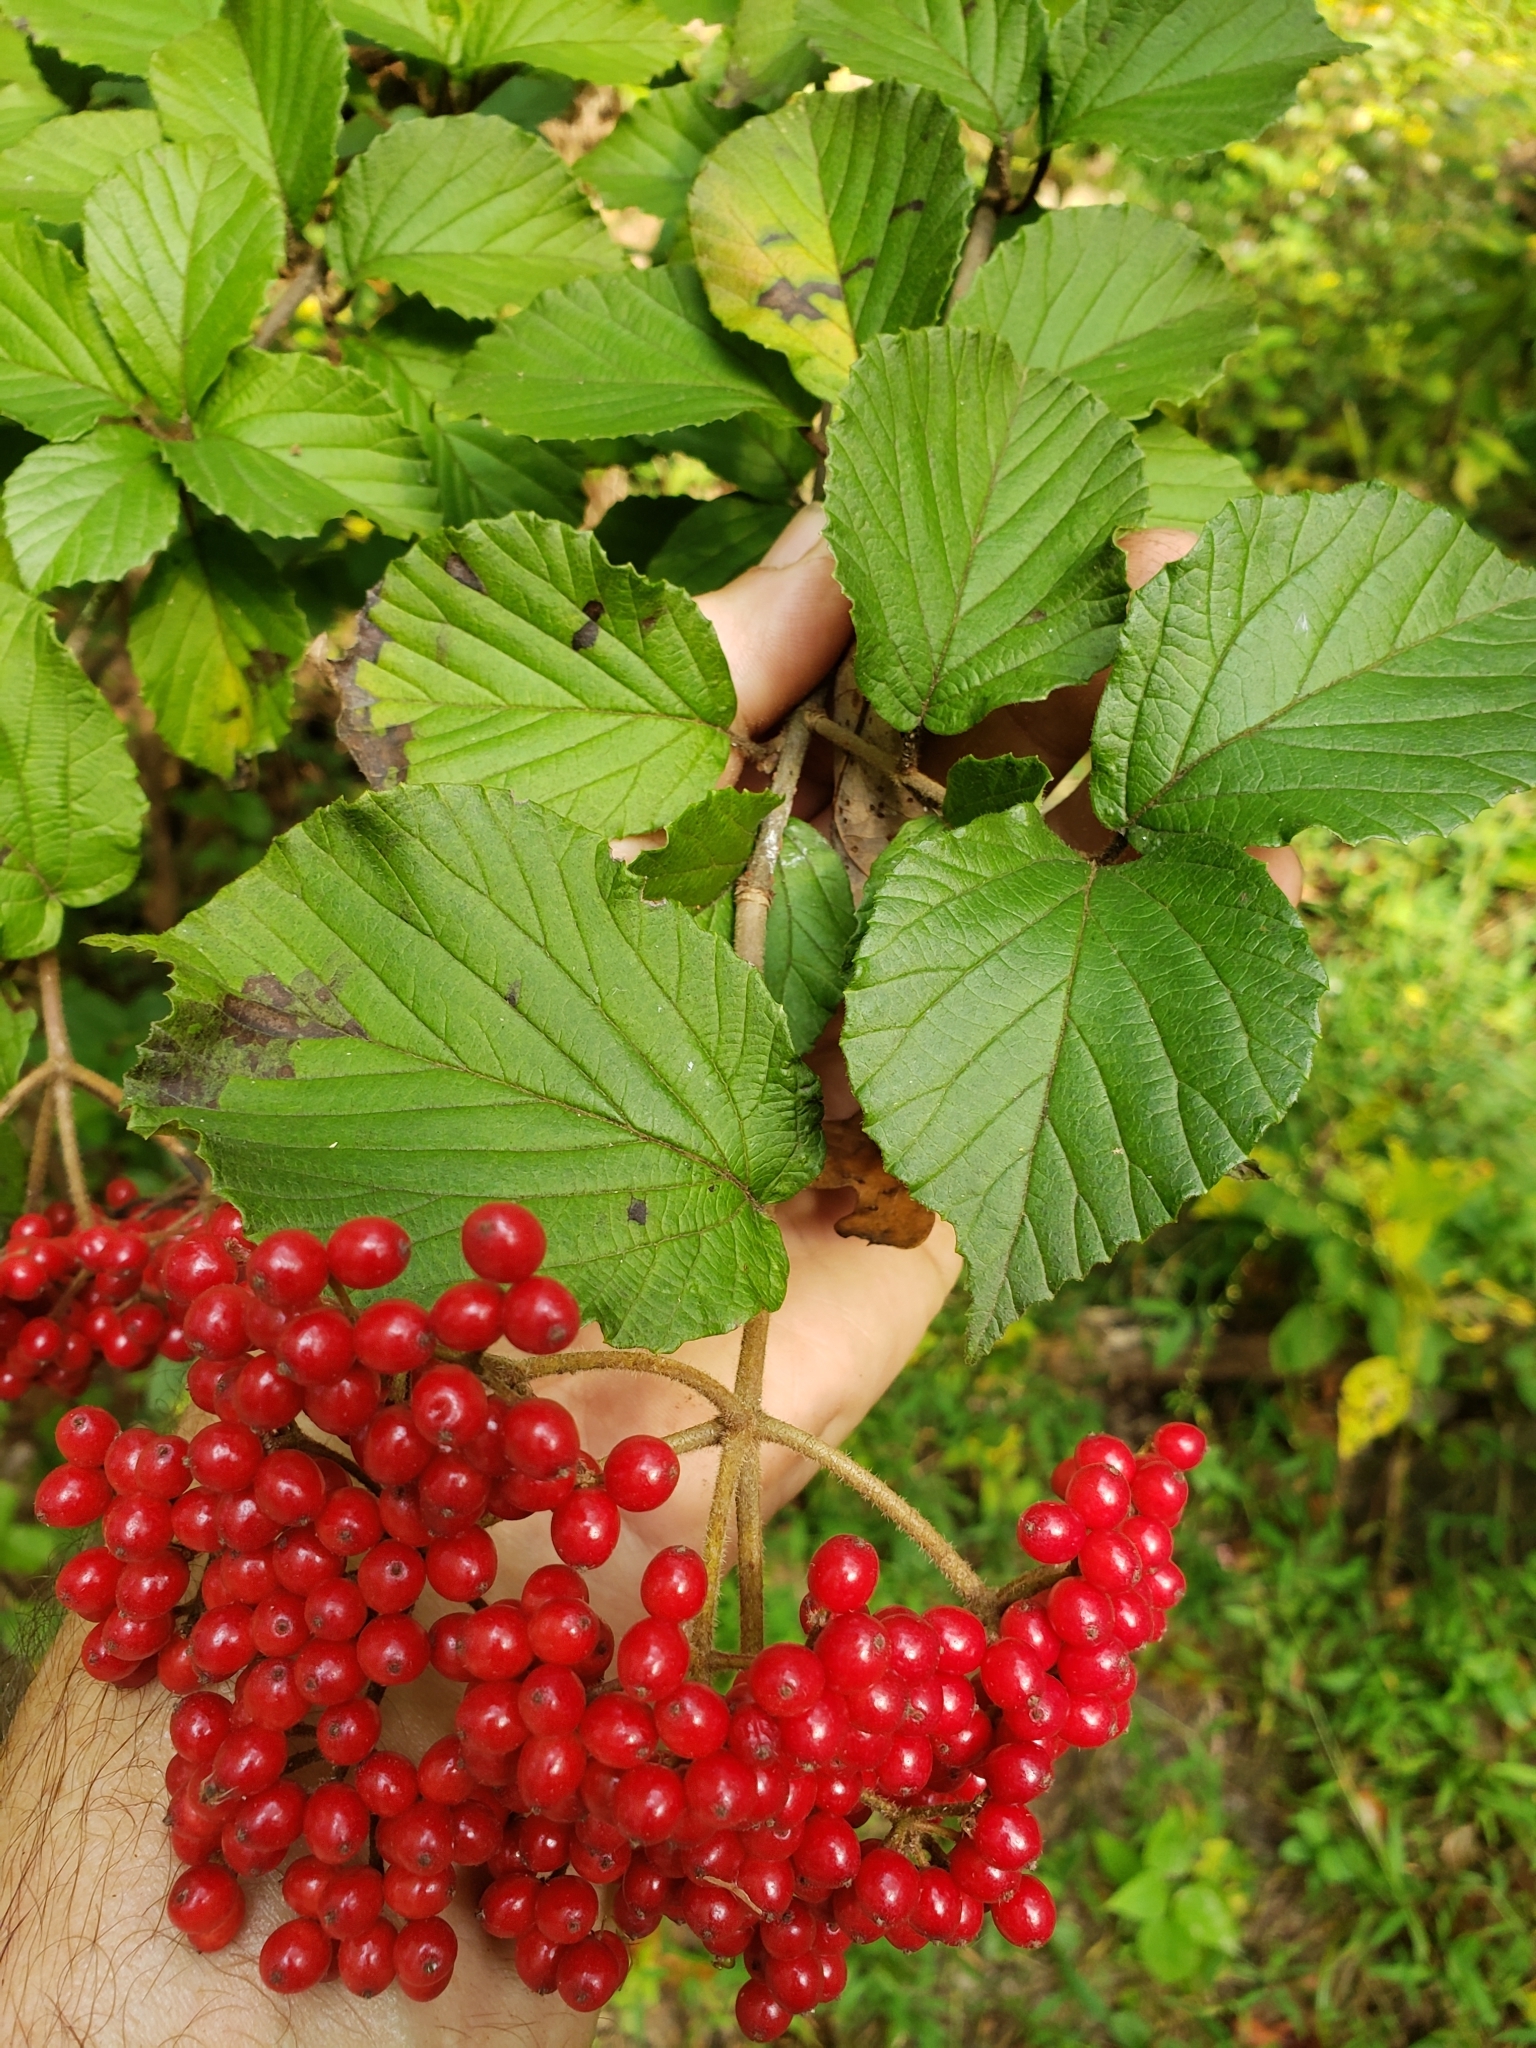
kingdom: Plantae
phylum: Tracheophyta
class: Magnoliopsida
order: Dipsacales
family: Viburnaceae
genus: Viburnum
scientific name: Viburnum dilatatum
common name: Linden arrowwood
